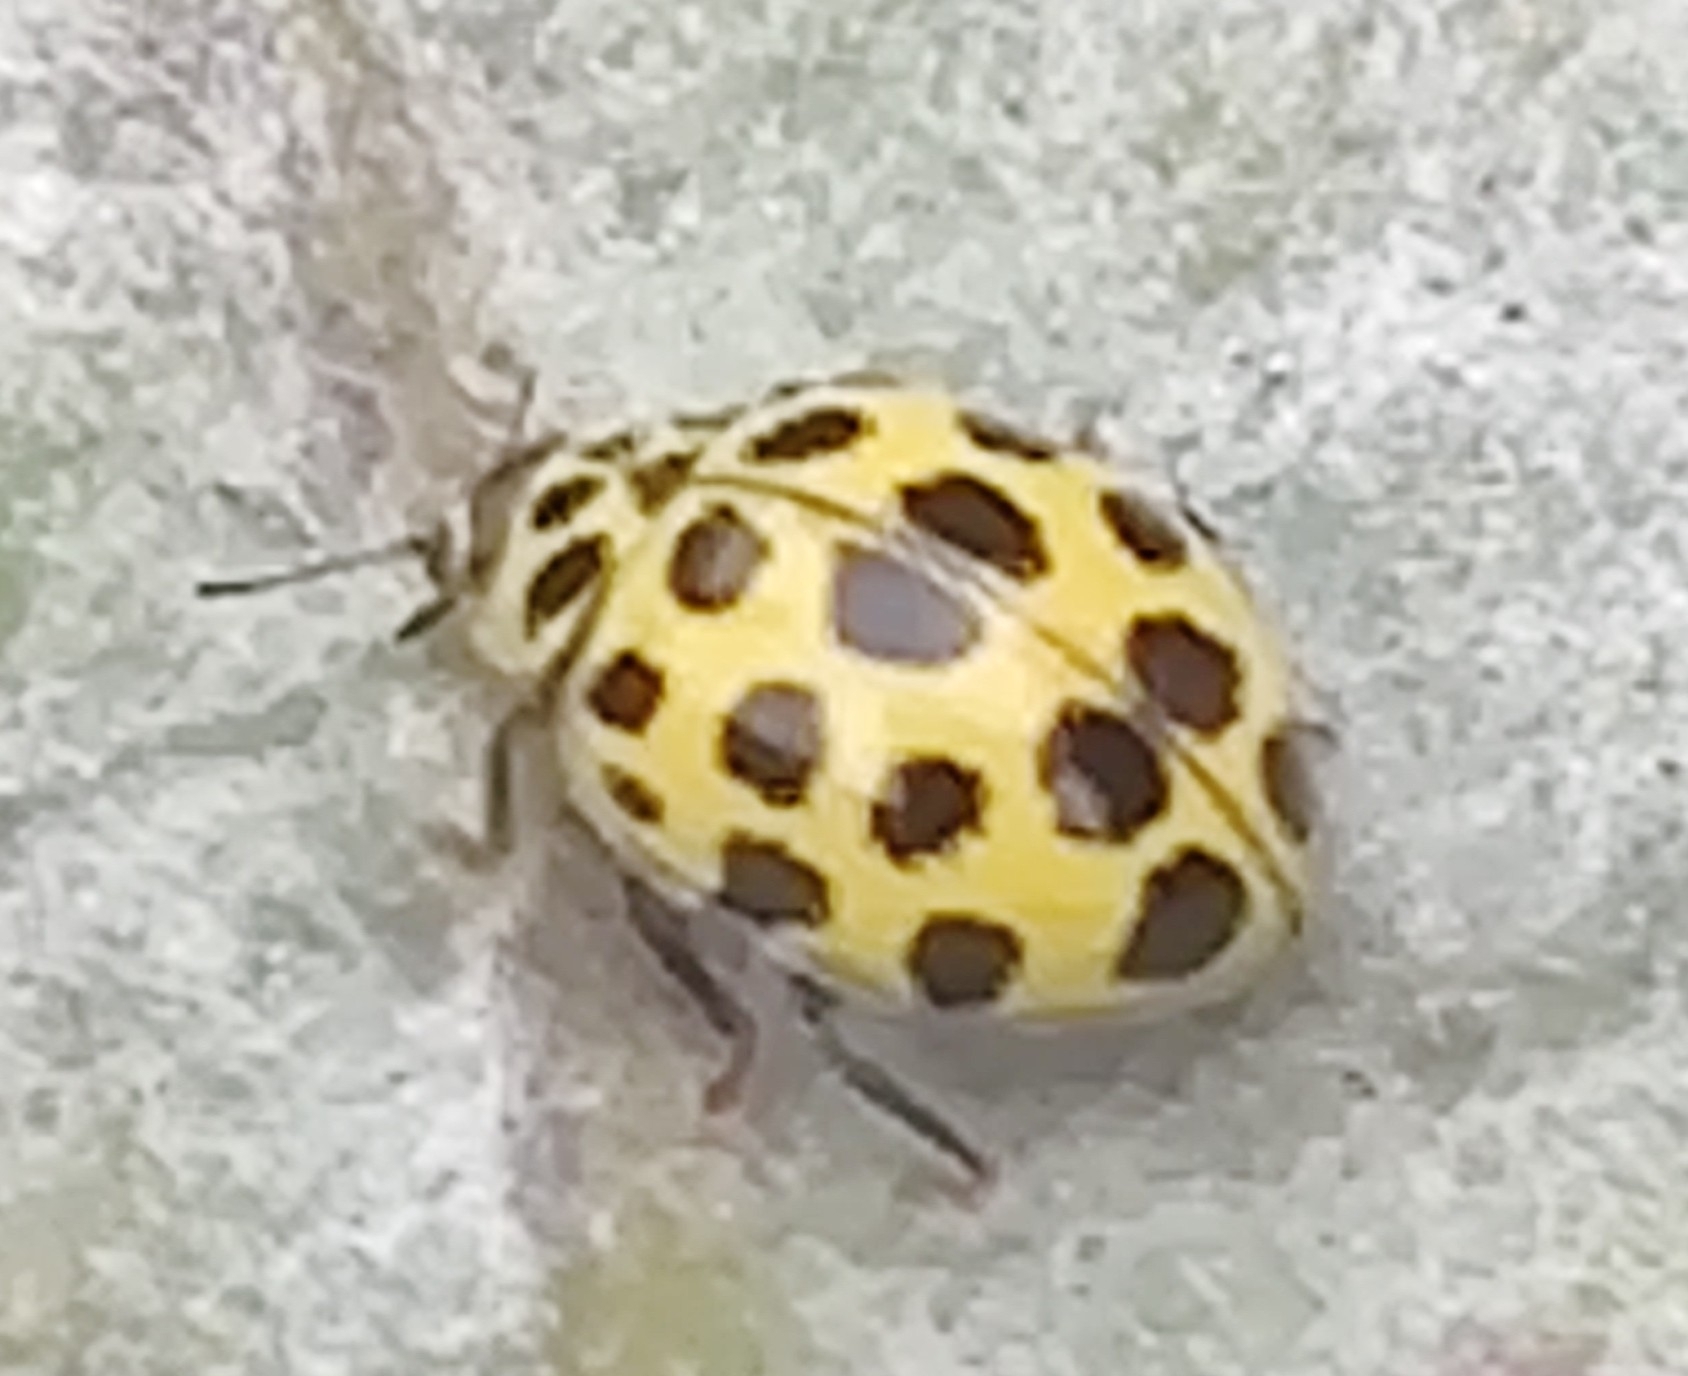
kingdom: Animalia
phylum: Arthropoda
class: Insecta
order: Coleoptera
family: Coccinellidae
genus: Psyllobora
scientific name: Psyllobora vigintiduopunctata
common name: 22-spot ladybird
